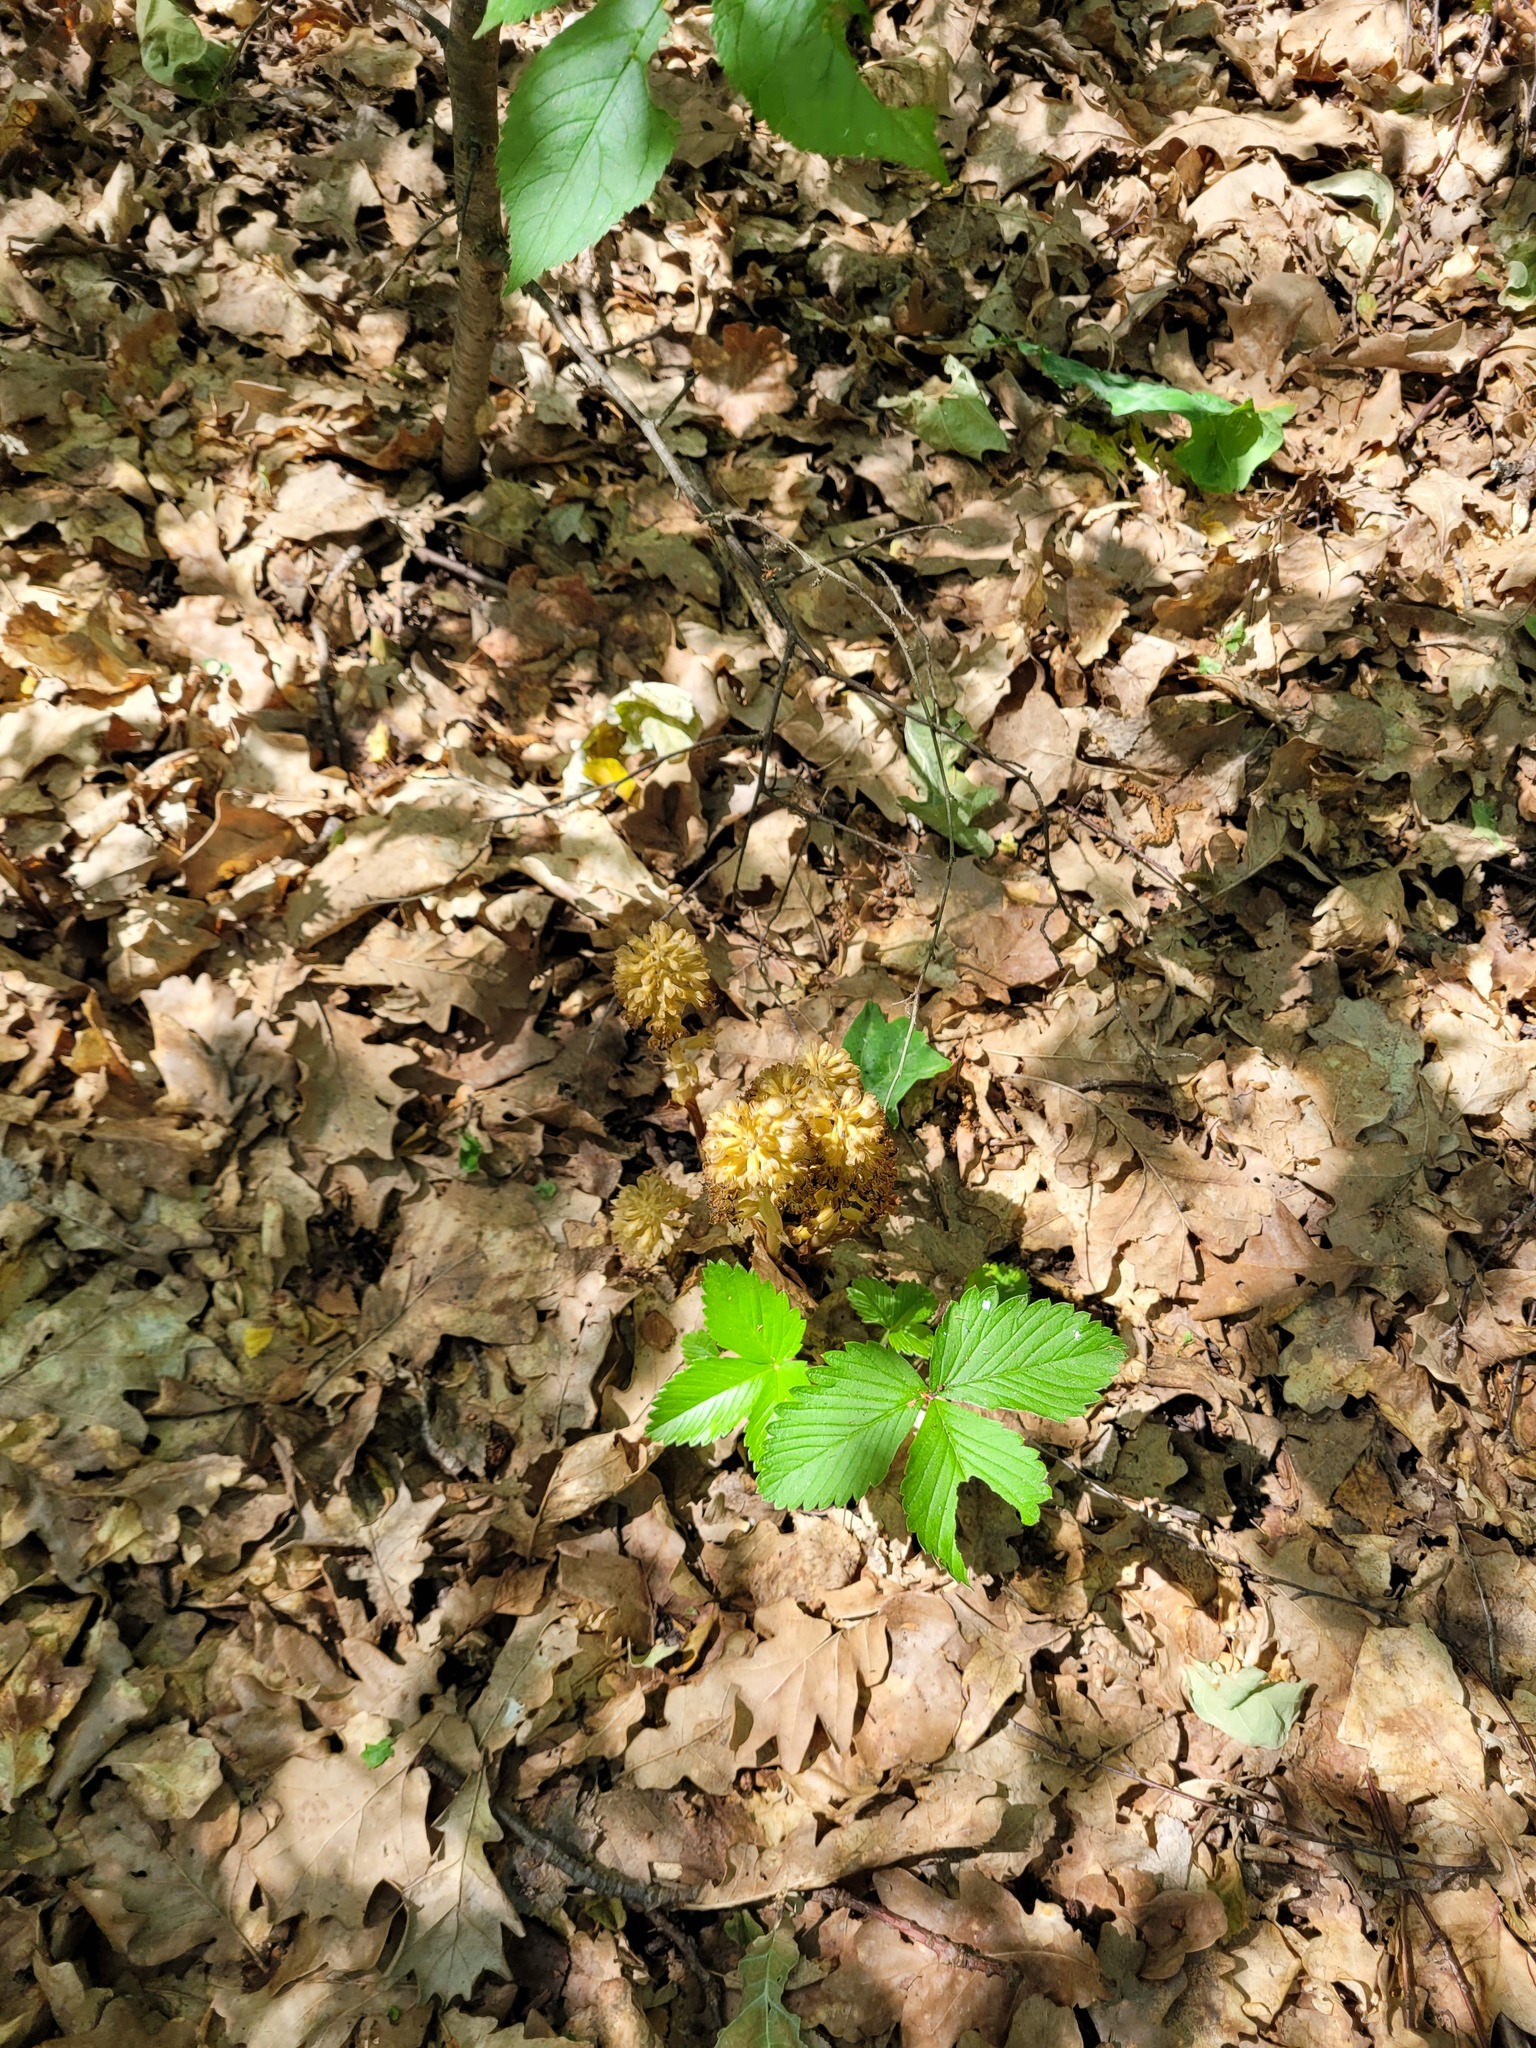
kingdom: Plantae
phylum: Tracheophyta
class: Liliopsida
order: Asparagales
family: Orchidaceae
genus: Neottia
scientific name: Neottia nidus-avis
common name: Bird's-nest orchid
